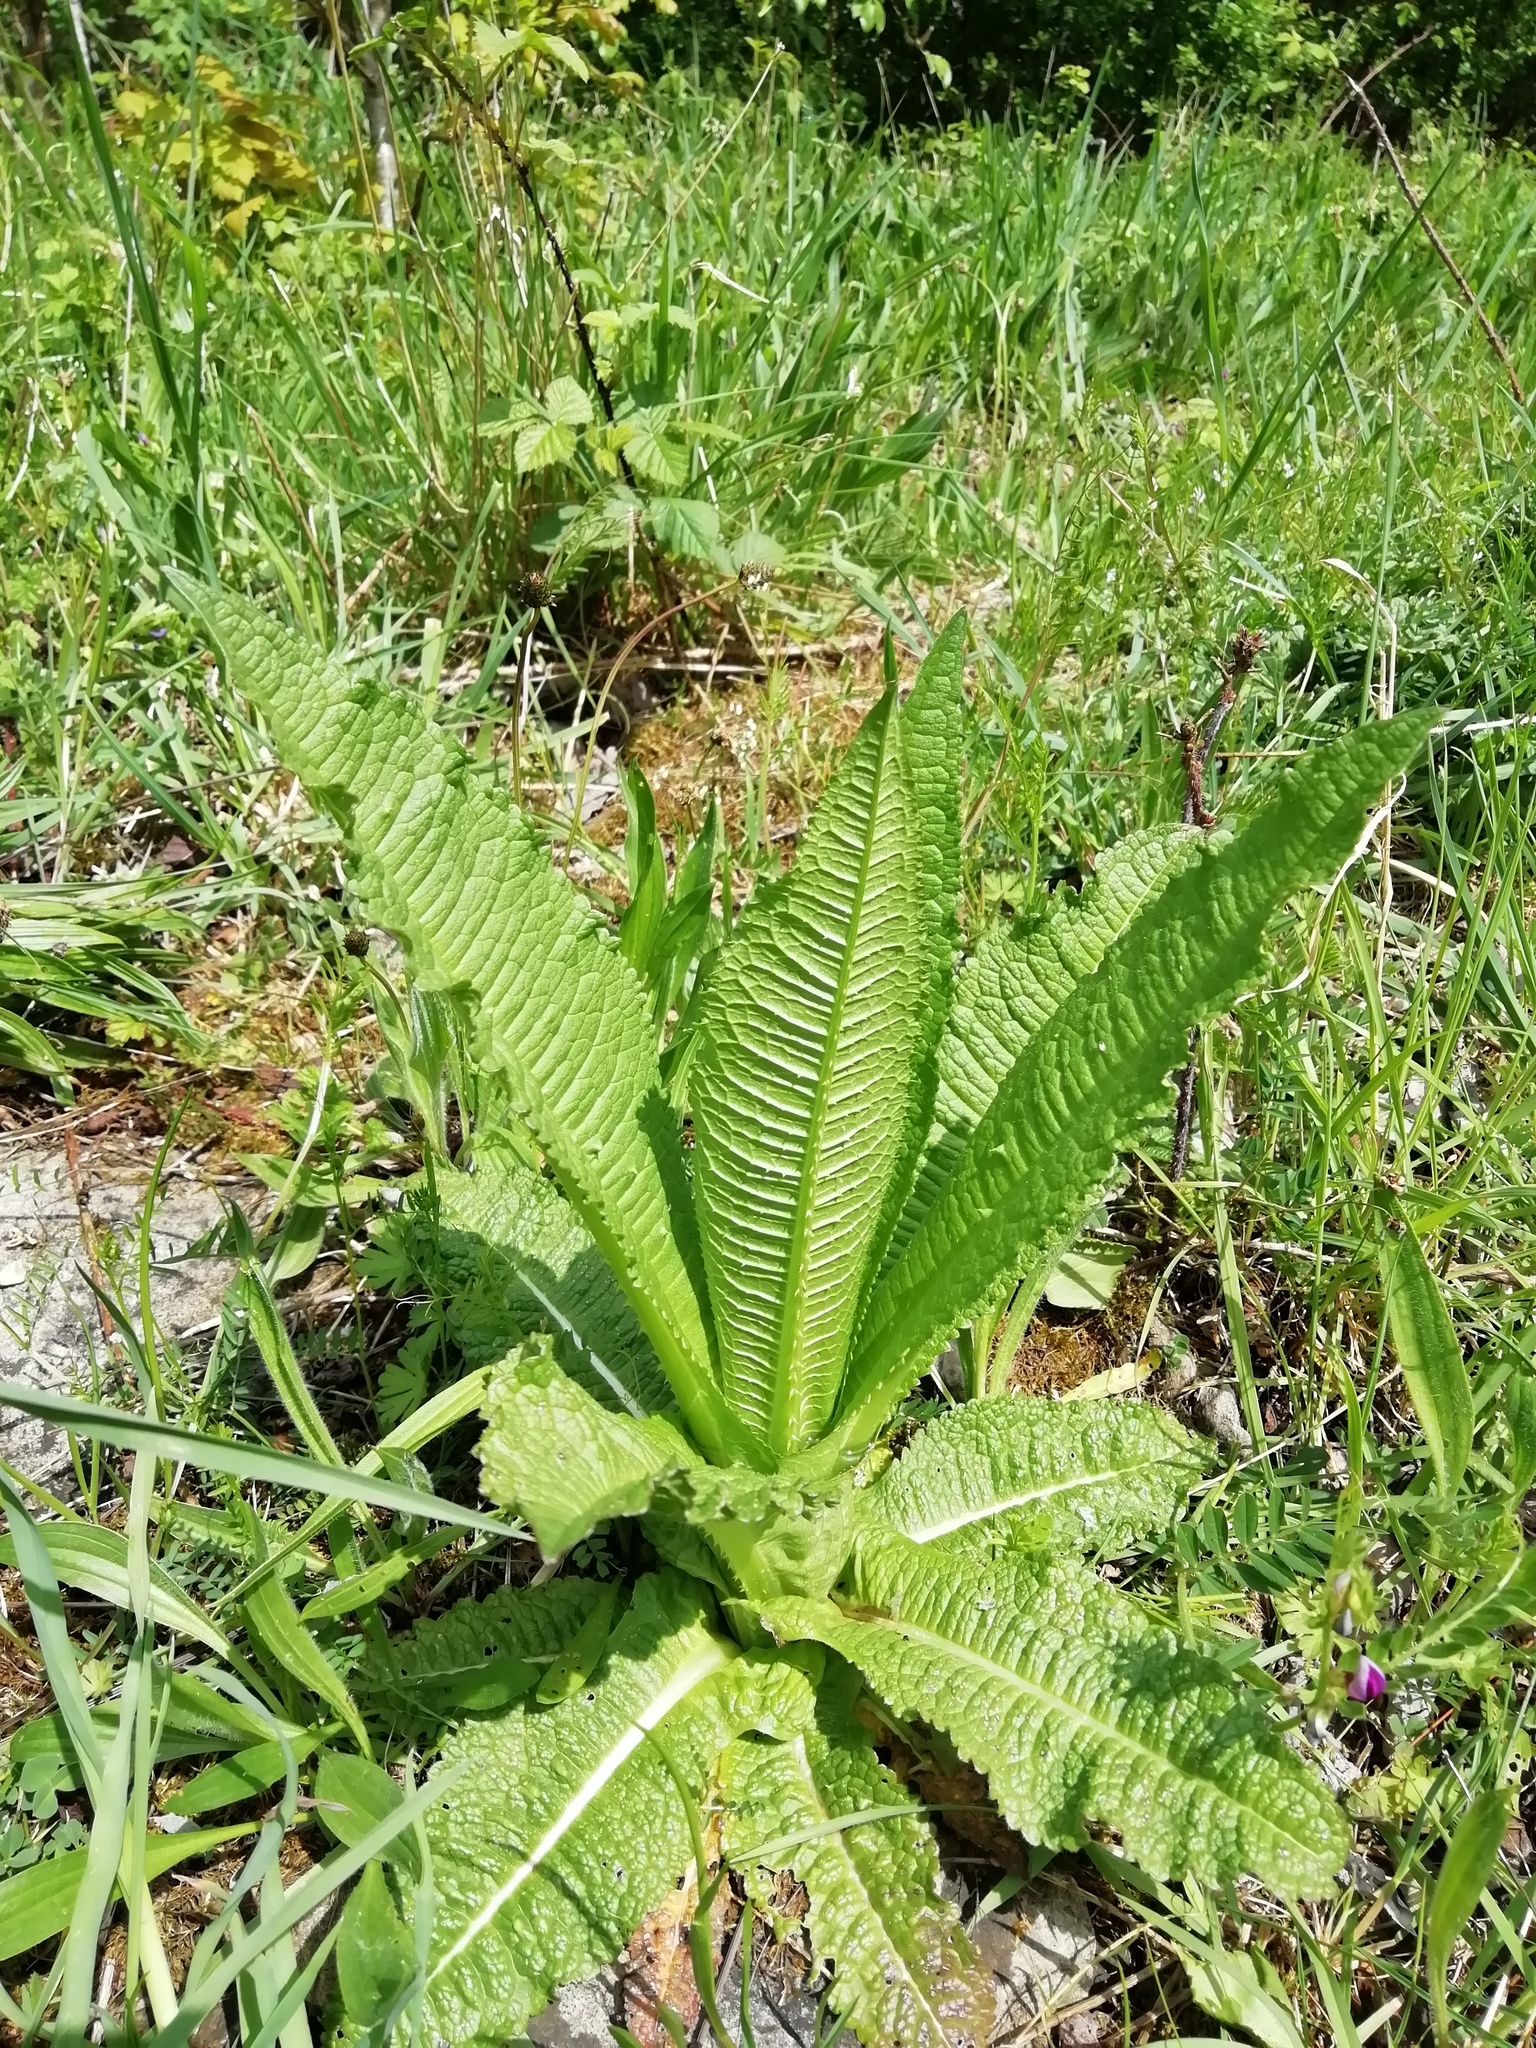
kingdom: Plantae
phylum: Tracheophyta
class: Magnoliopsida
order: Dipsacales
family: Caprifoliaceae
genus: Dipsacus
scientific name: Dipsacus fullonum
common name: Teasel
